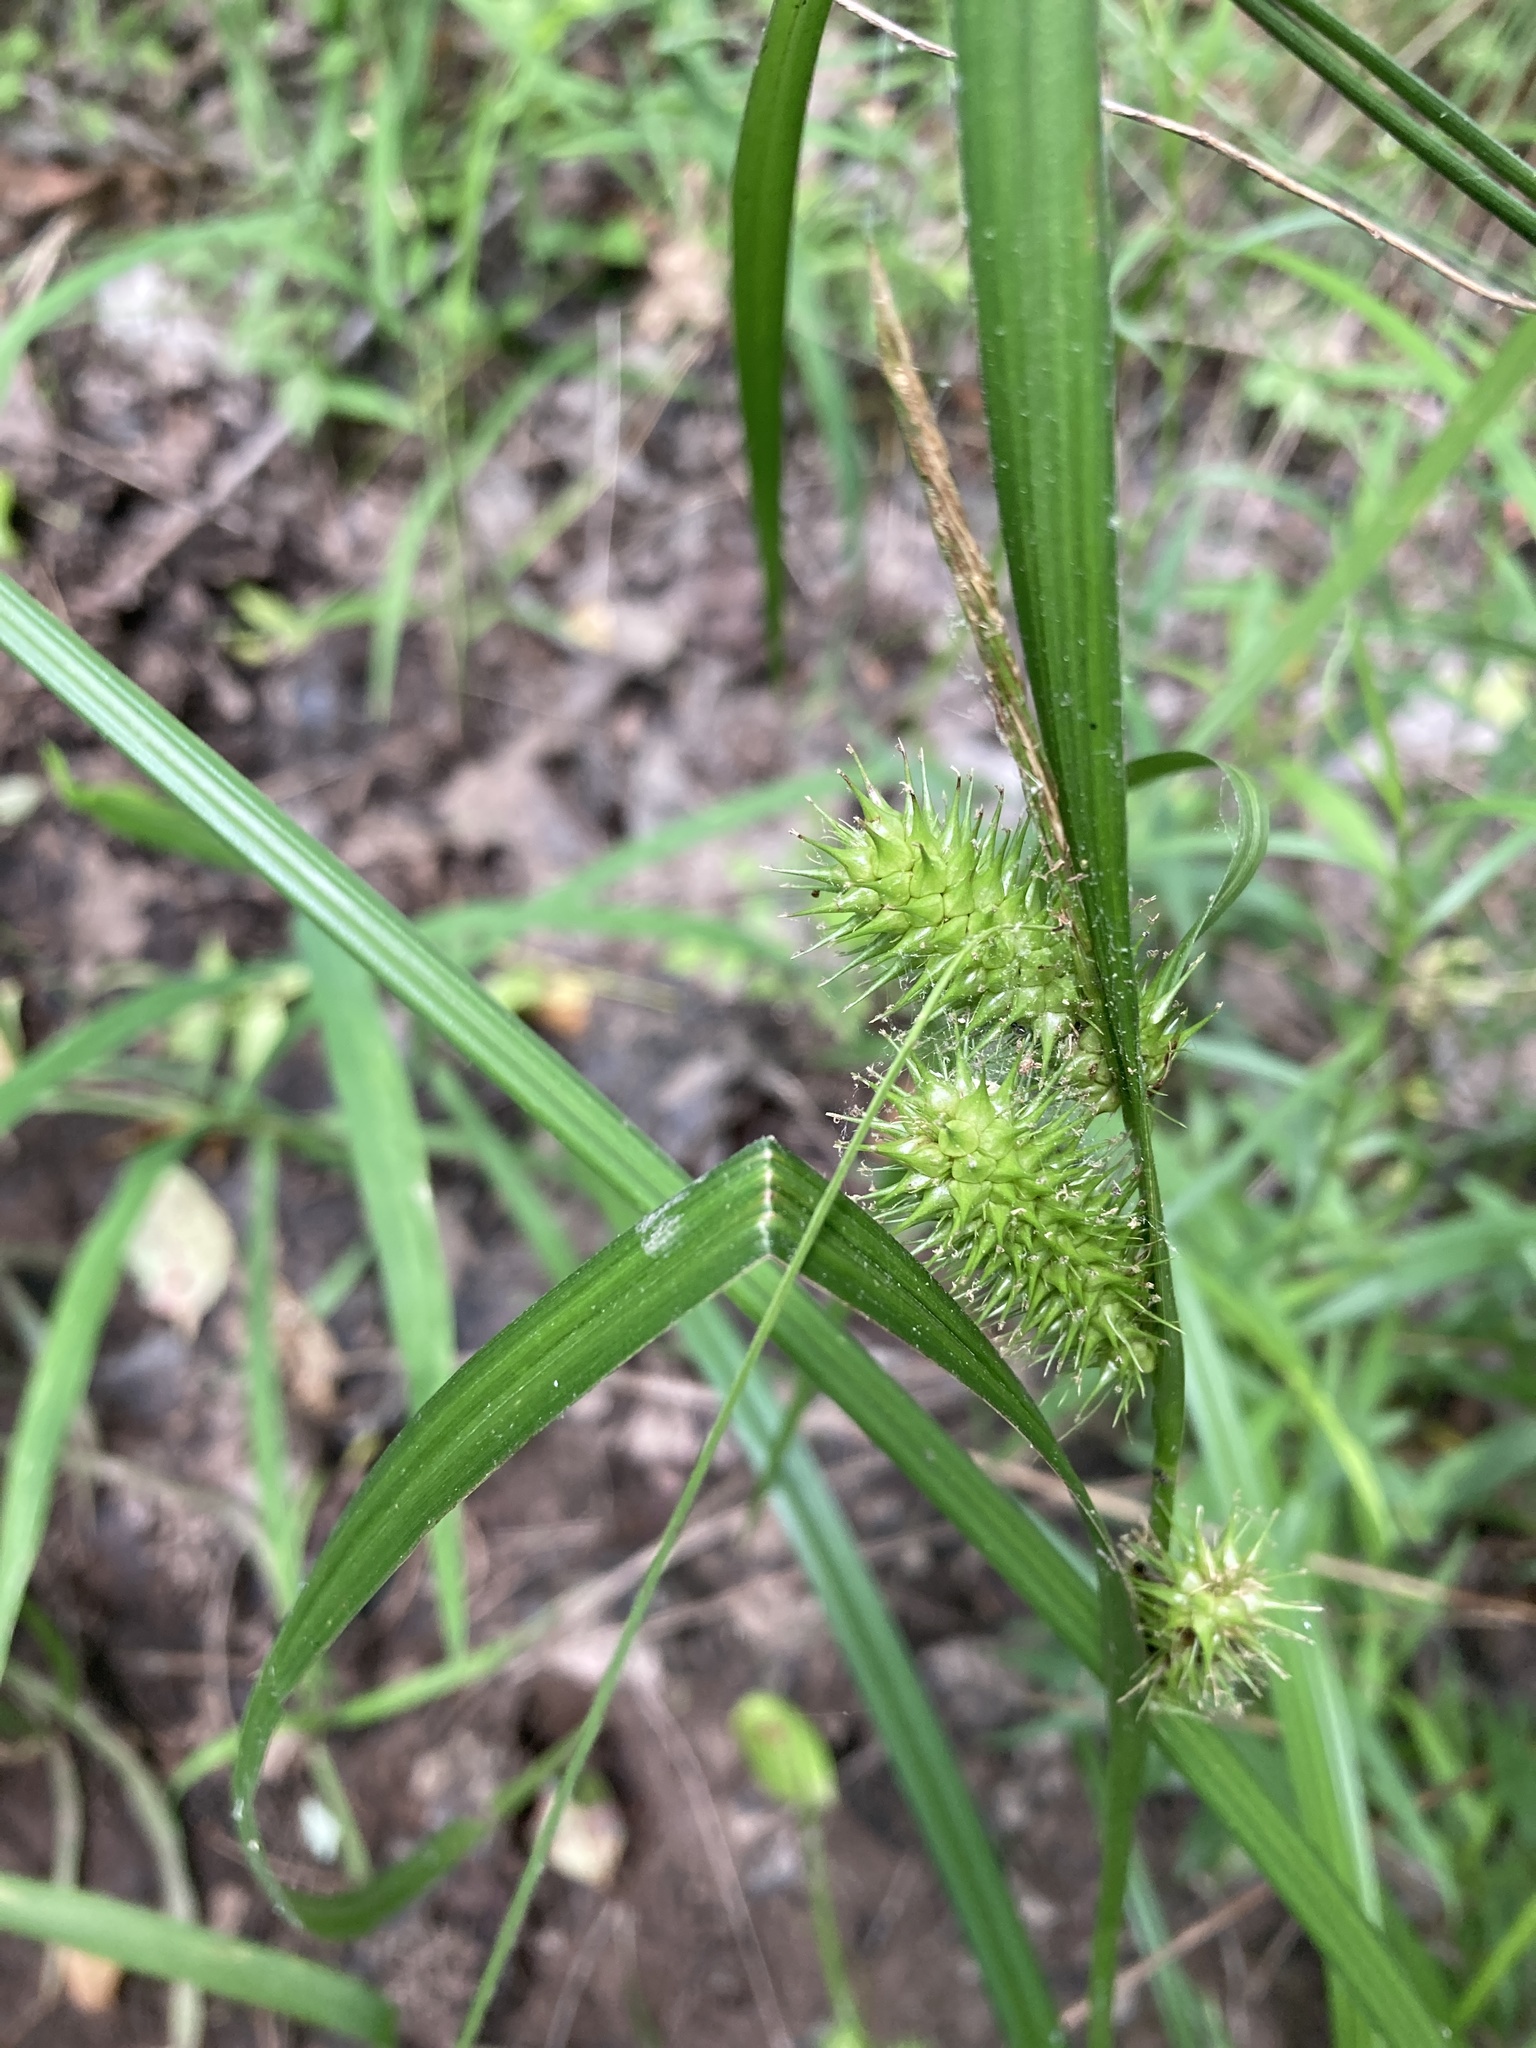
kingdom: Plantae
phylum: Tracheophyta
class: Liliopsida
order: Poales
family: Cyperaceae
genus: Carex
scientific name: Carex lurida
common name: Sallow sedge
